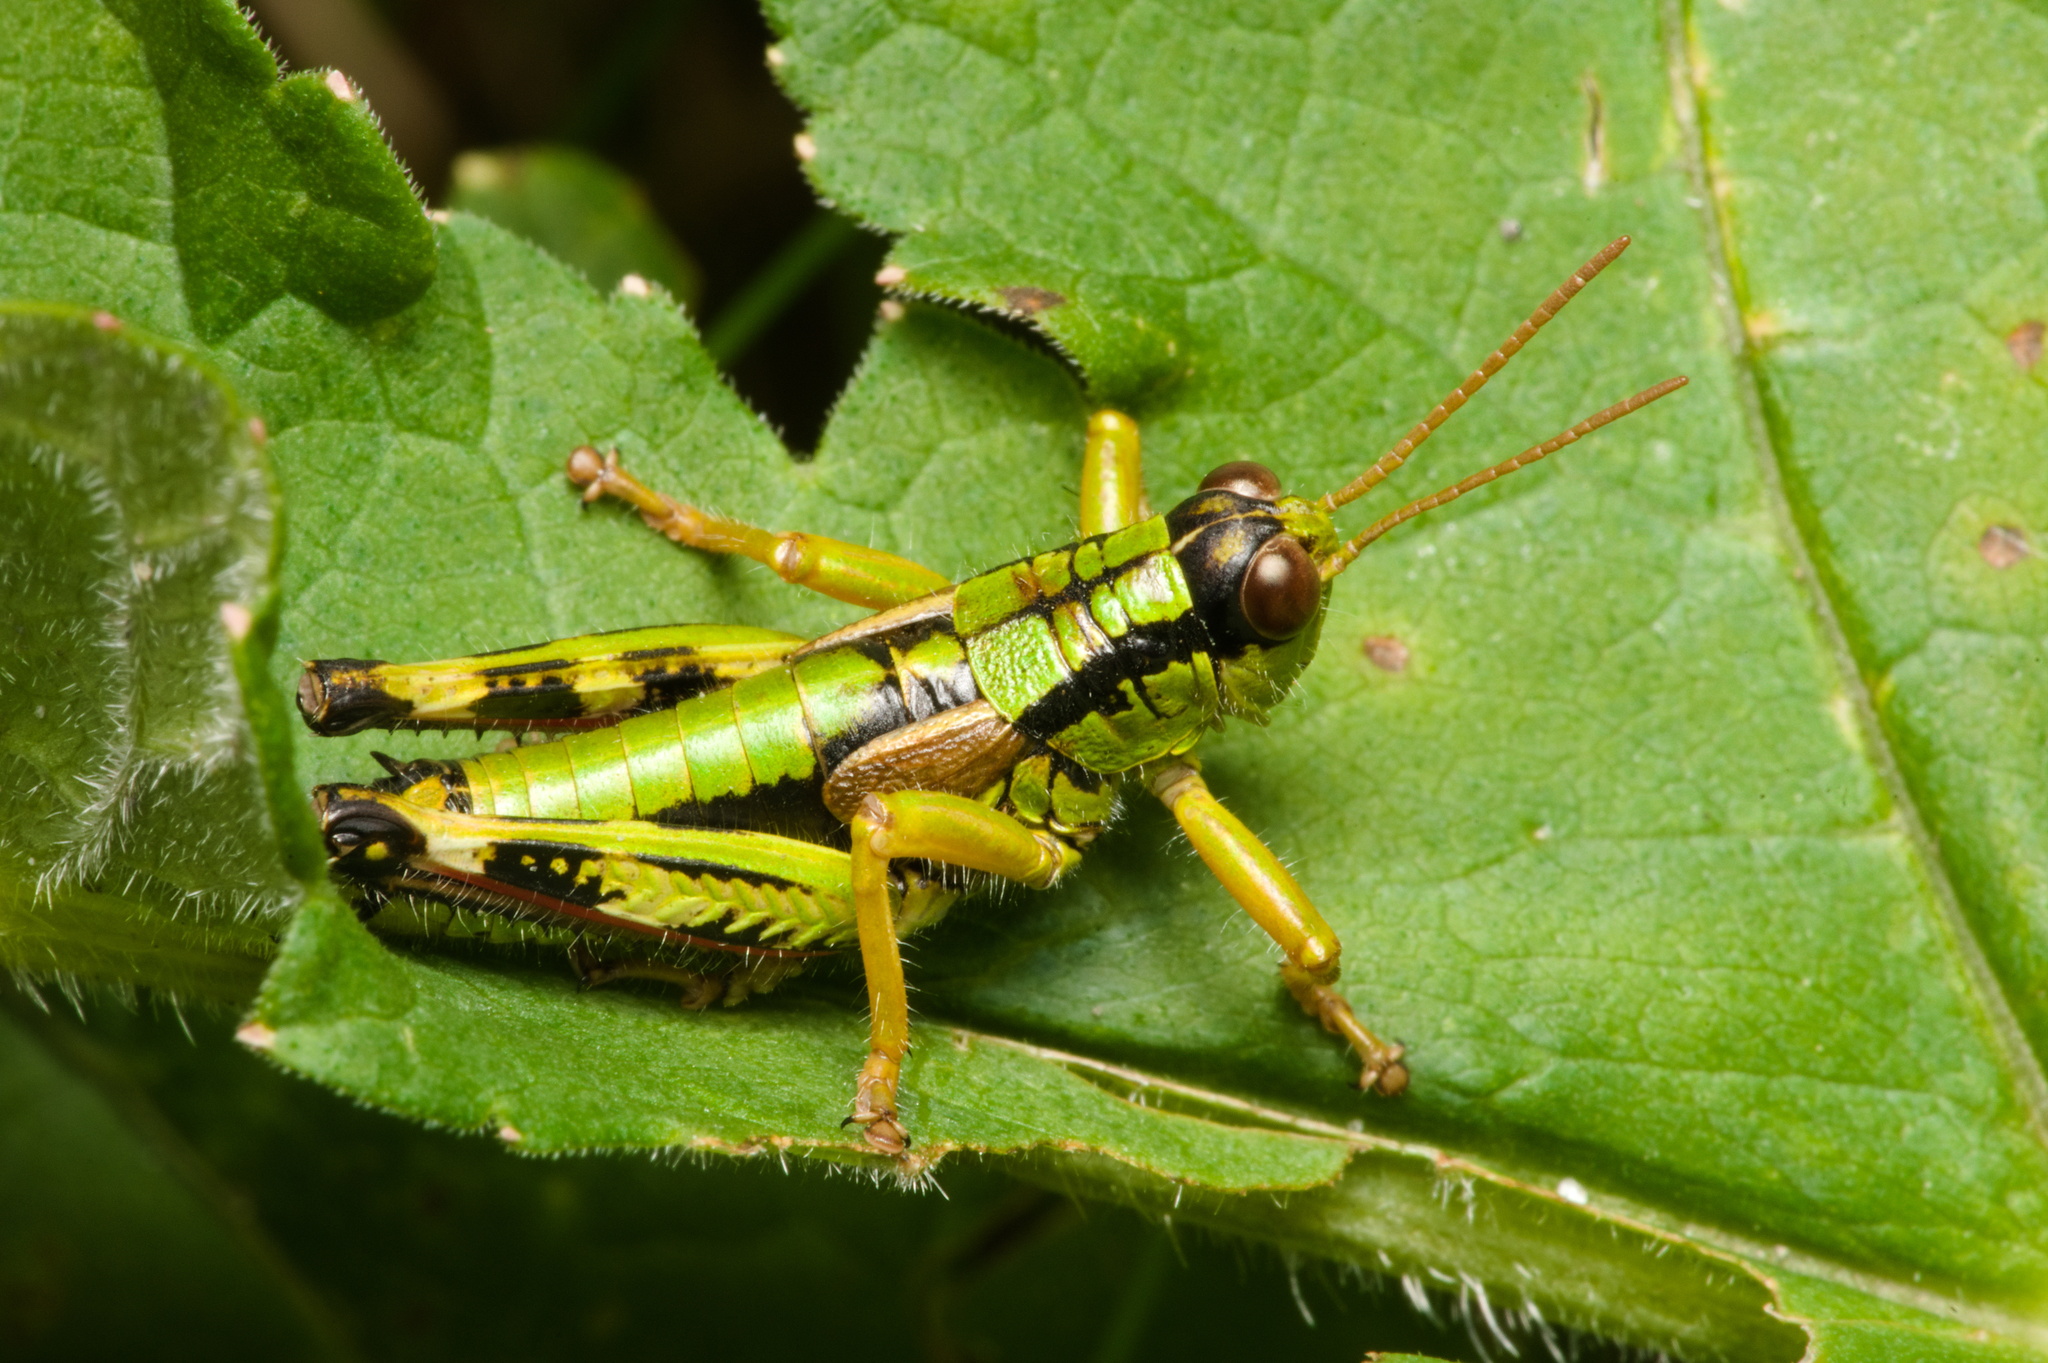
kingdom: Animalia
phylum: Arthropoda
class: Insecta
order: Orthoptera
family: Acrididae
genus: Miramella
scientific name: Miramella alpina
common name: Green mountain grasshopper
